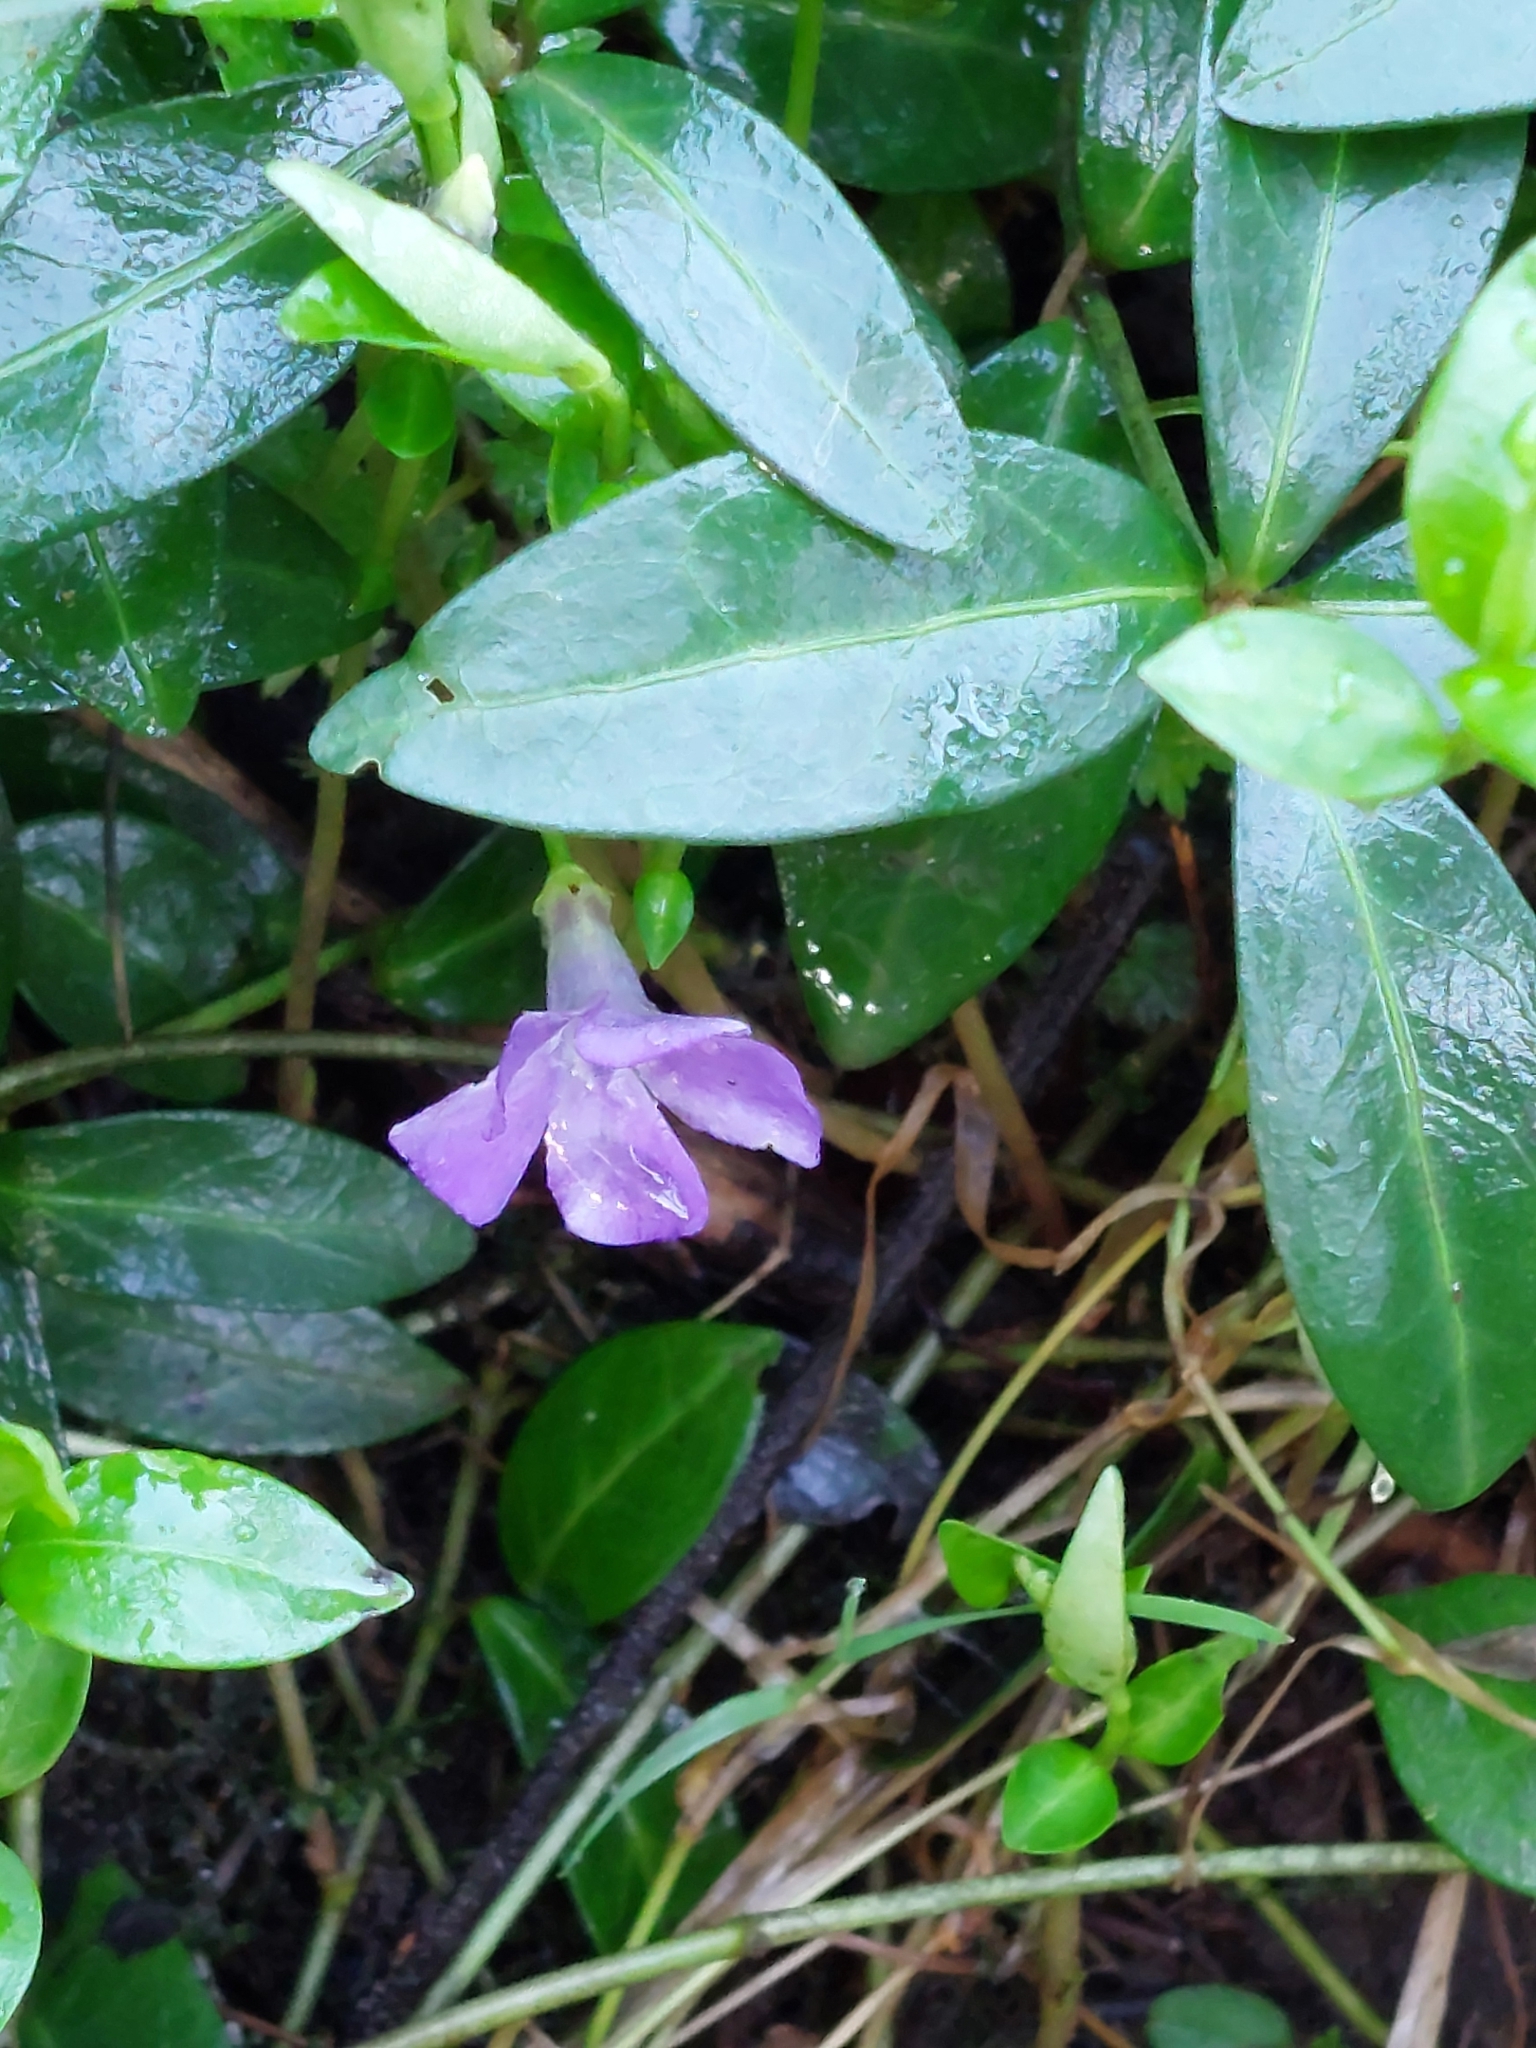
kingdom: Plantae
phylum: Tracheophyta
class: Magnoliopsida
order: Gentianales
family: Apocynaceae
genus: Vinca
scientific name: Vinca minor
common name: Lesser periwinkle
